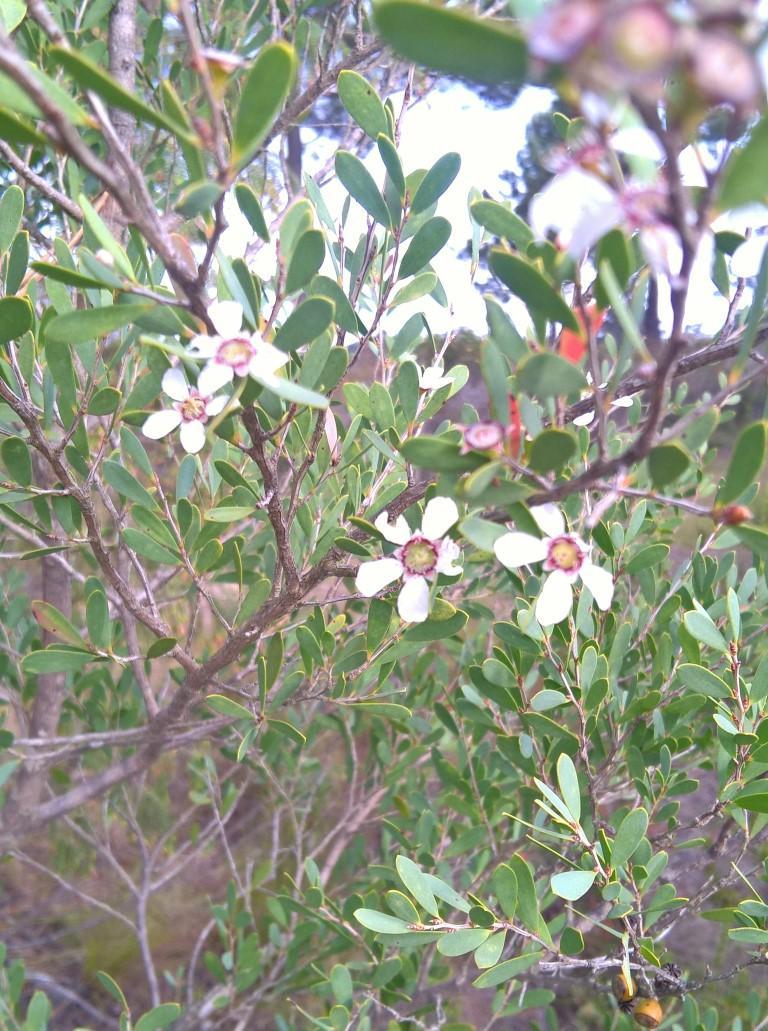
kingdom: Plantae
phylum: Tracheophyta
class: Magnoliopsida
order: Myrtales
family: Myrtaceae
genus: Leptospermum
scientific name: Leptospermum laevigatum
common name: Australian teatree
